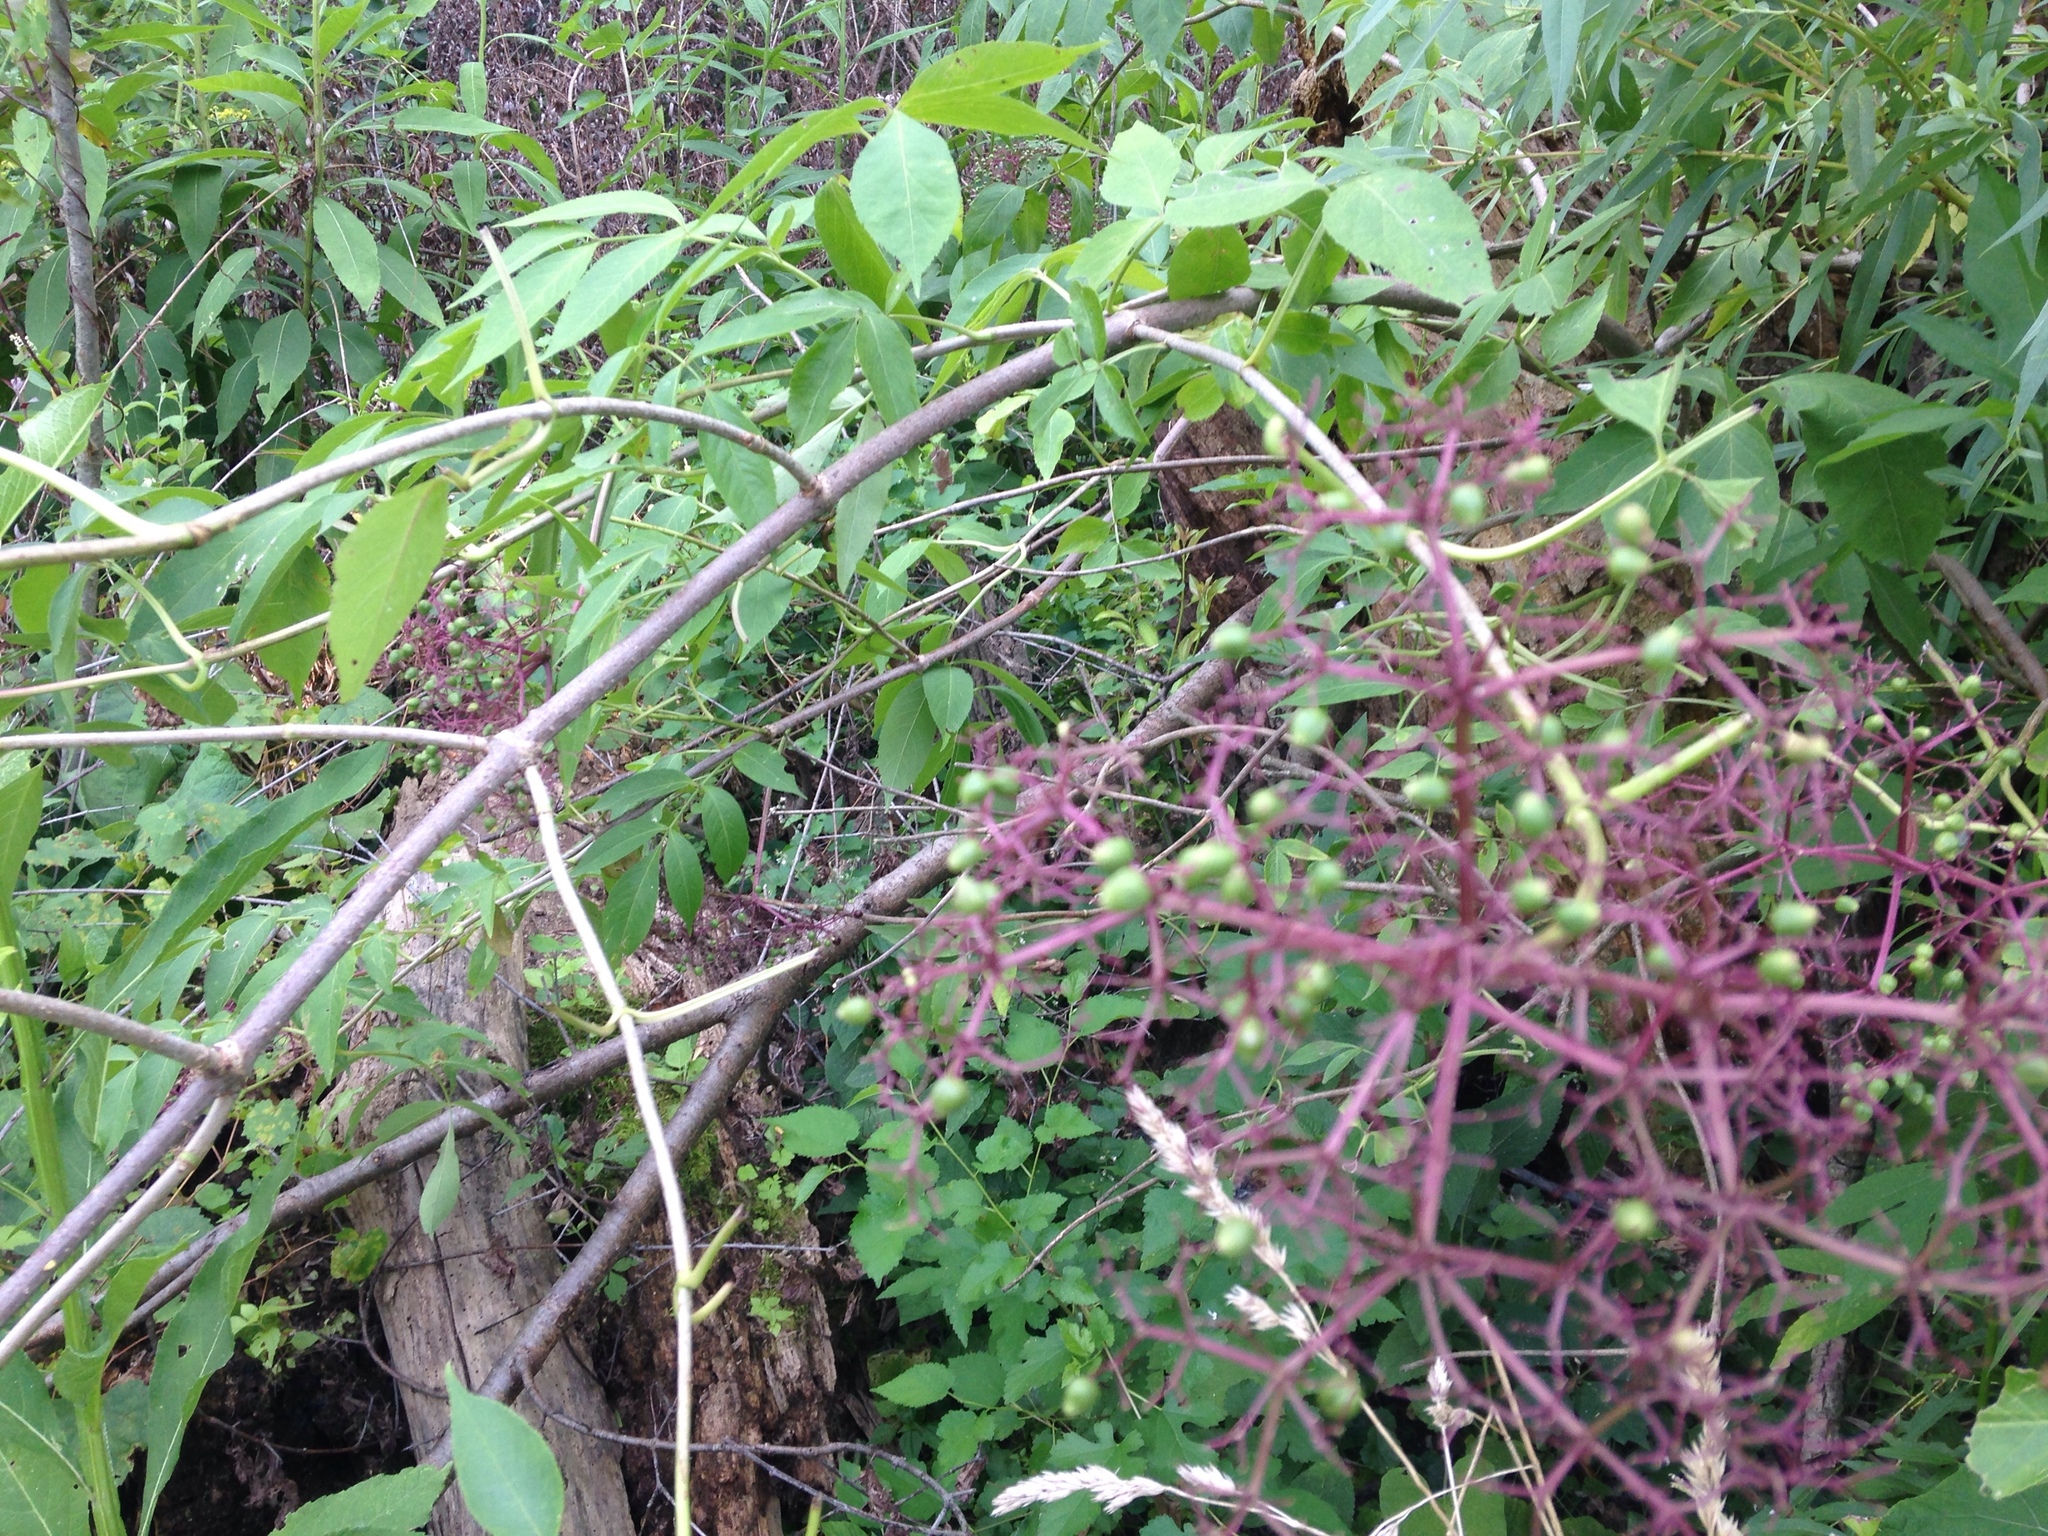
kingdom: Plantae
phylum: Tracheophyta
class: Magnoliopsida
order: Dipsacales
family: Viburnaceae
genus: Sambucus
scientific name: Sambucus canadensis
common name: American elder
